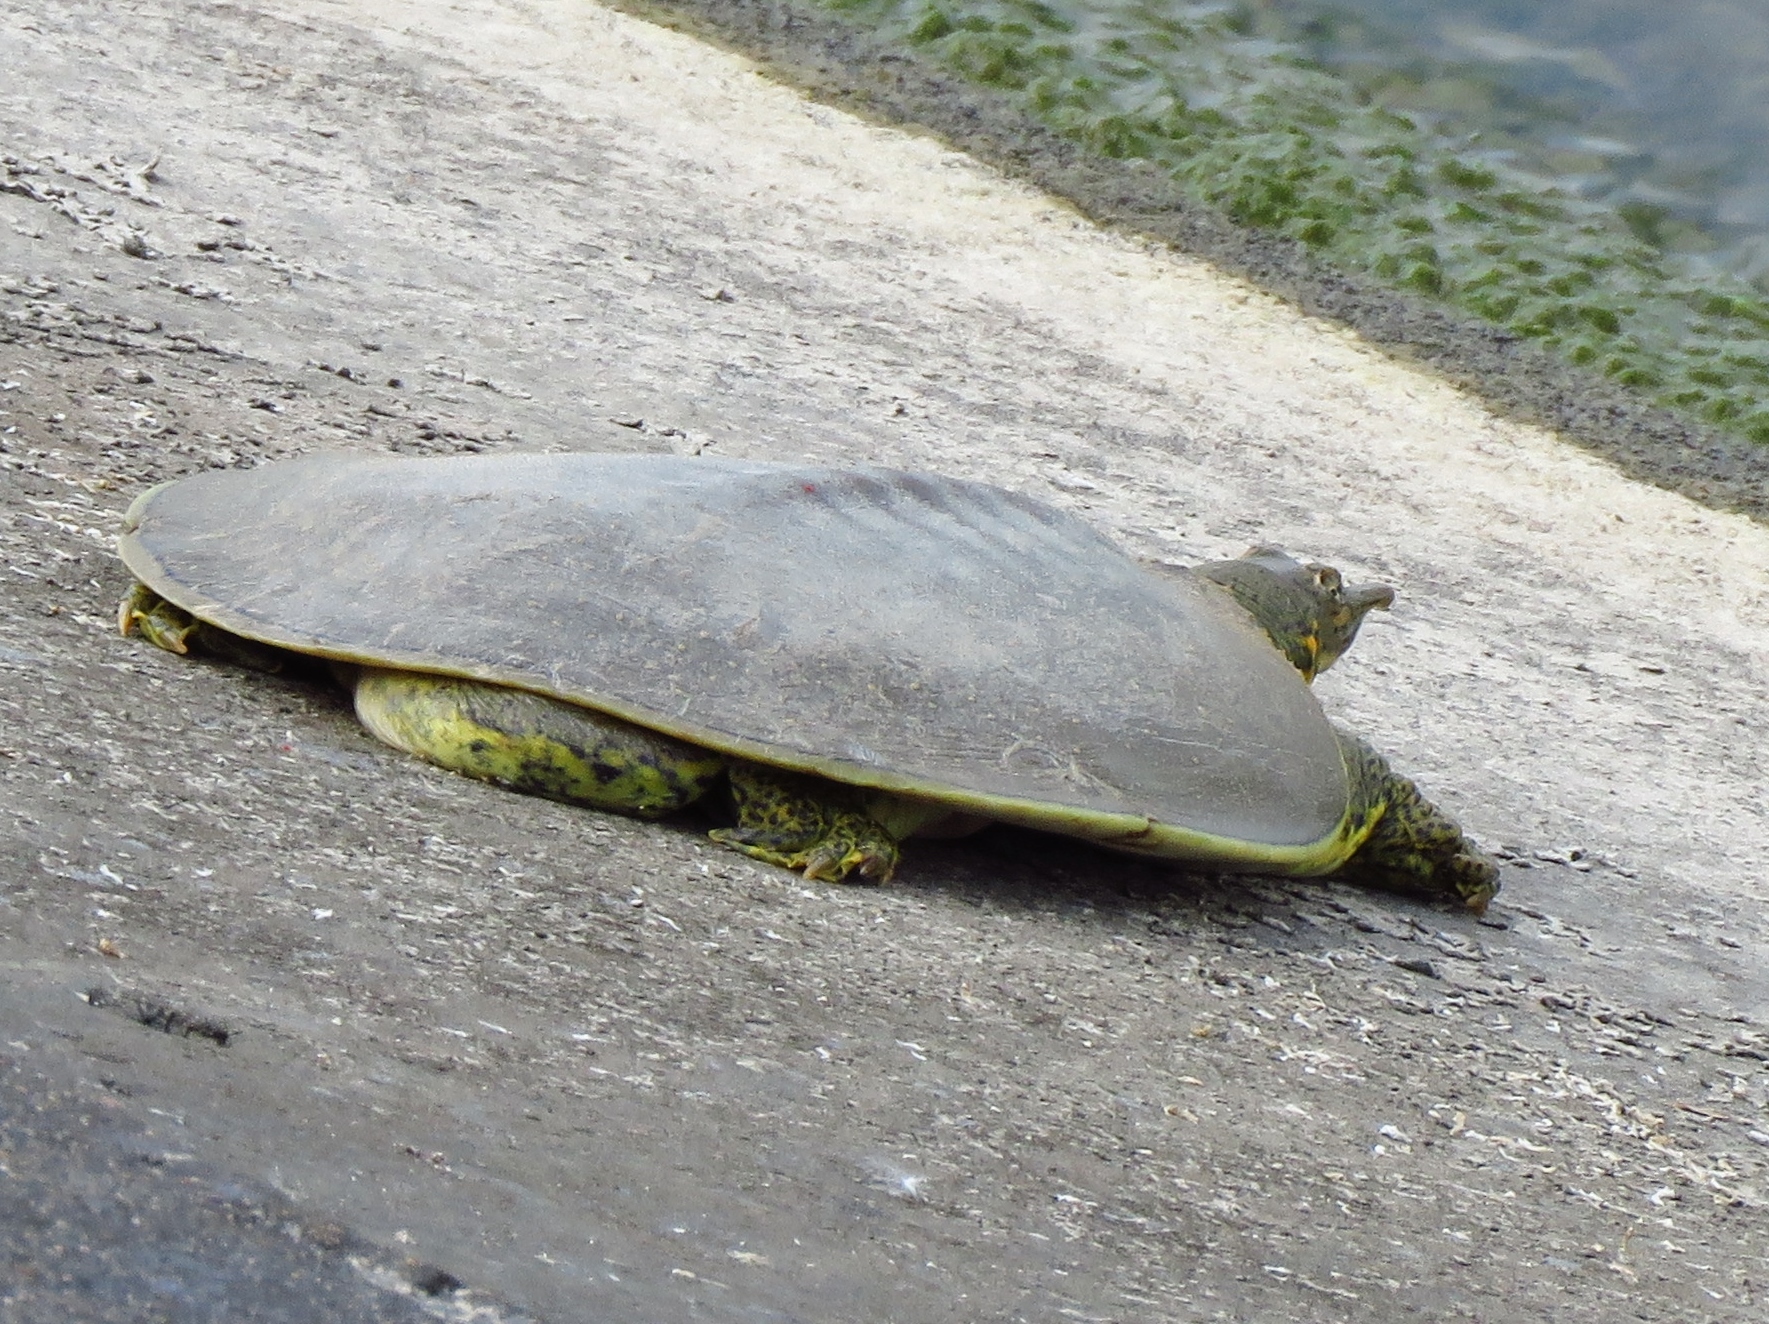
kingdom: Animalia
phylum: Chordata
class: Testudines
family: Trionychidae
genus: Apalone
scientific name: Apalone spinifera
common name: Spiny softshell turtle
